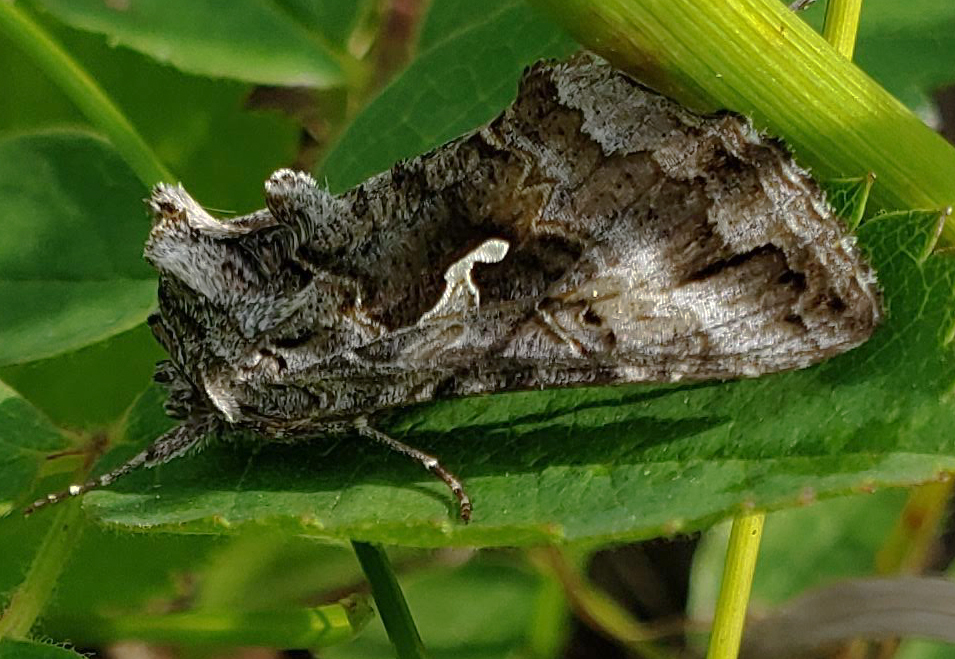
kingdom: Animalia
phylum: Arthropoda
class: Insecta
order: Lepidoptera
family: Noctuidae
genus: Autographa
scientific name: Autographa californica
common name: Alfalfa looper
